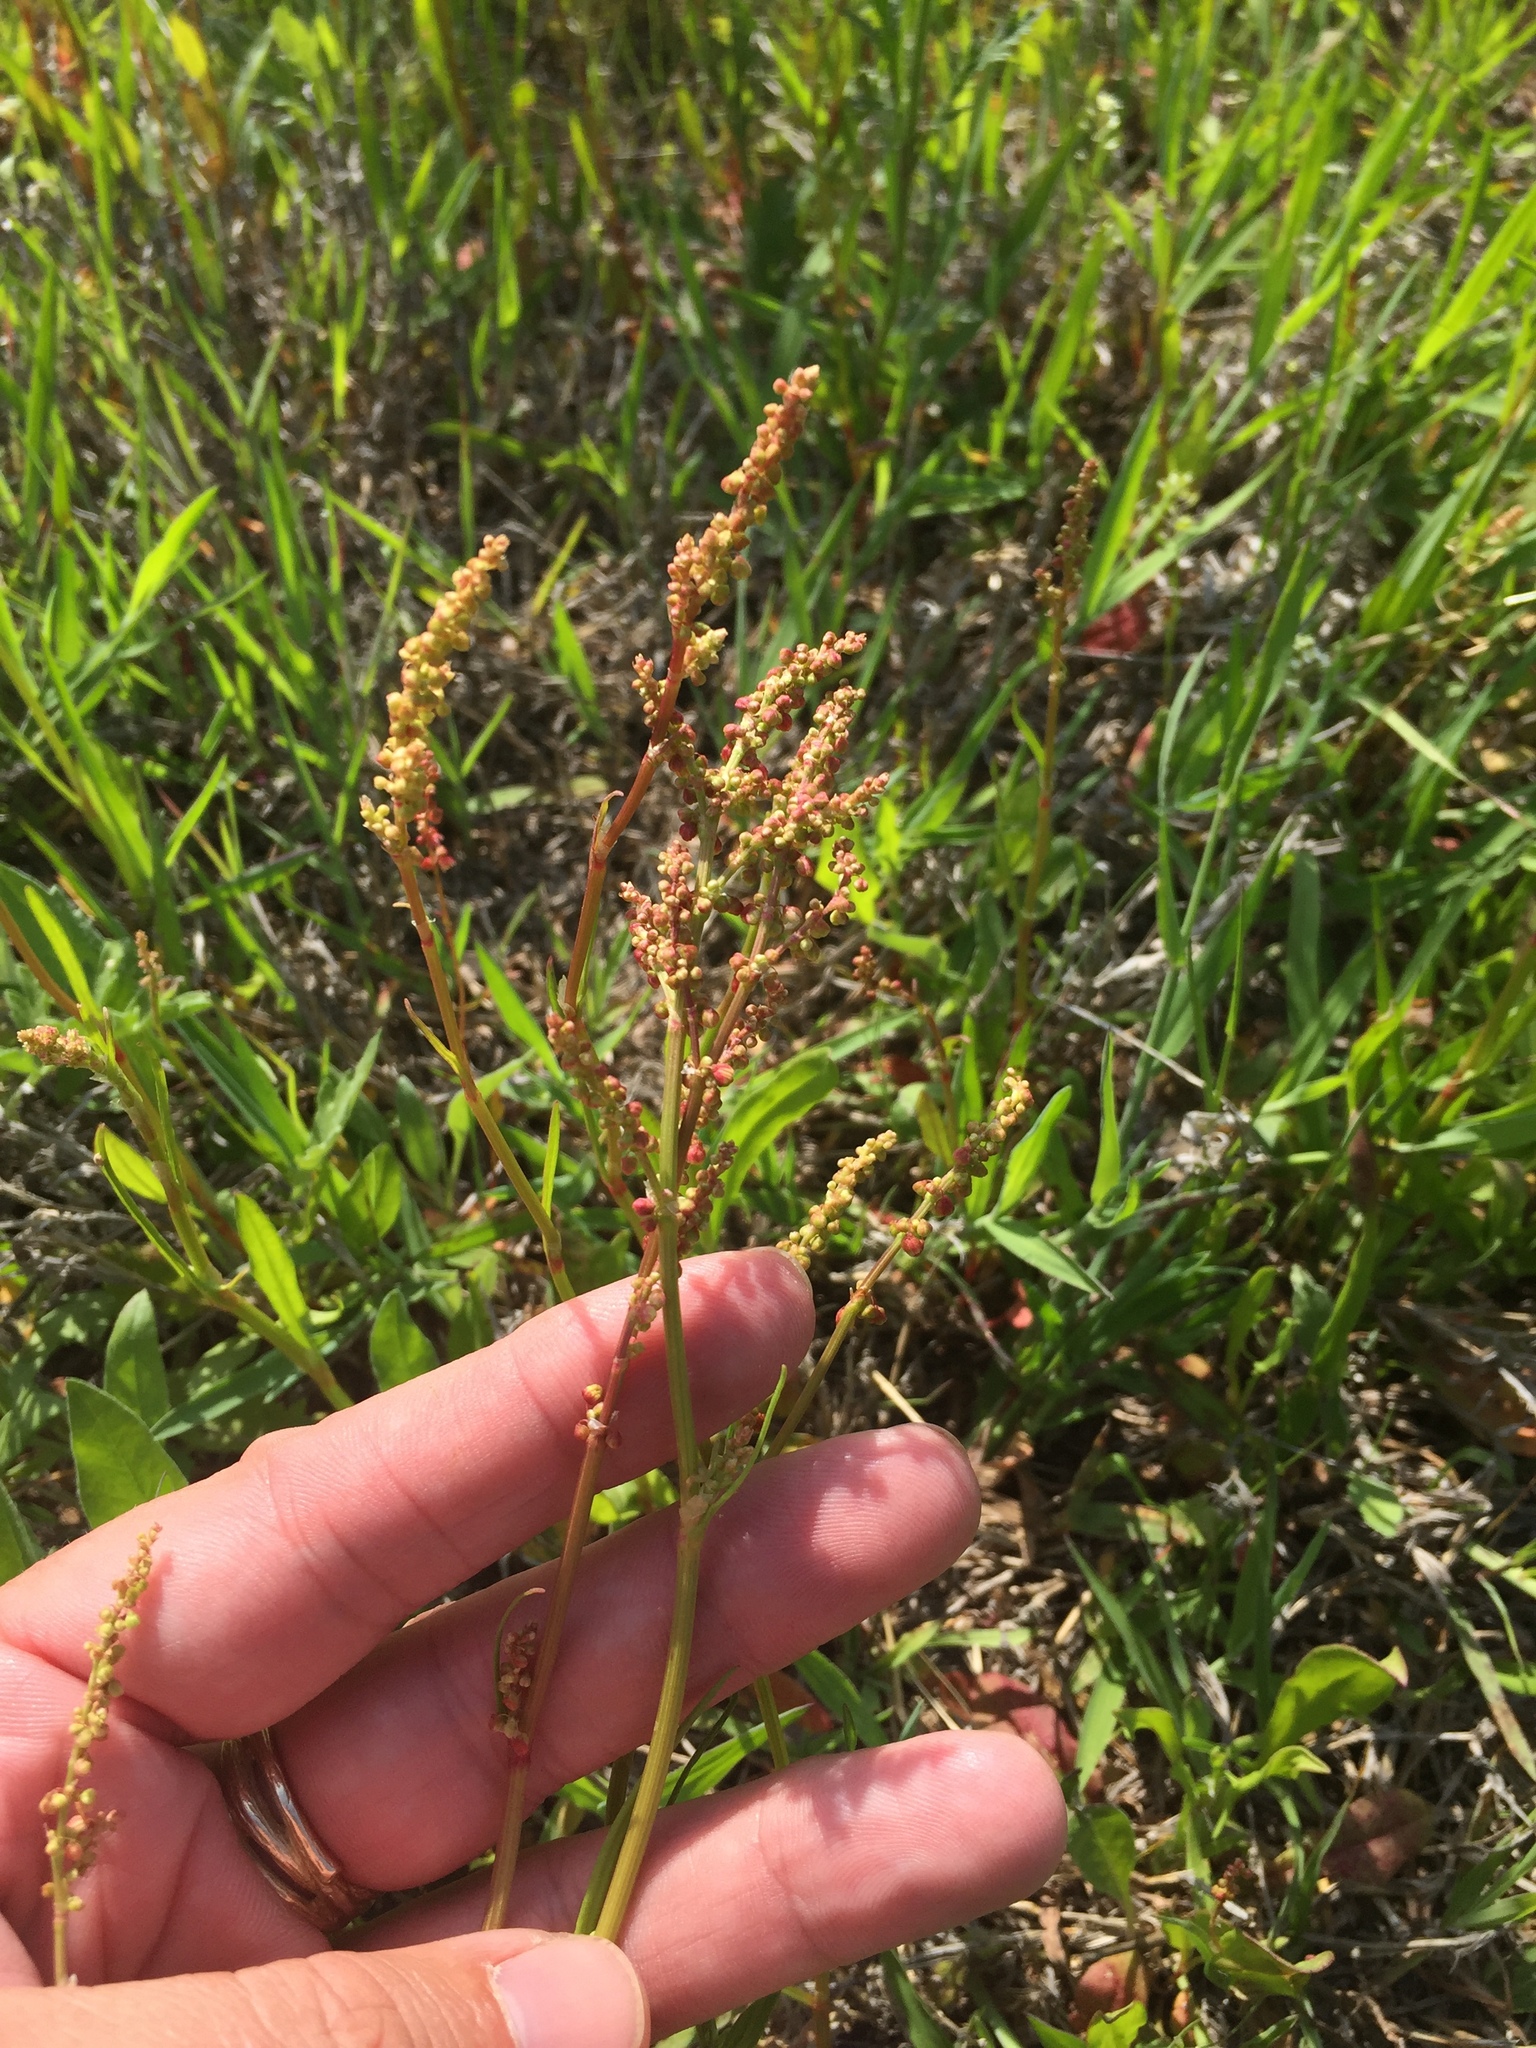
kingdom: Plantae
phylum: Tracheophyta
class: Magnoliopsida
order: Caryophyllales
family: Polygonaceae
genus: Rumex
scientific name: Rumex hastatulus
